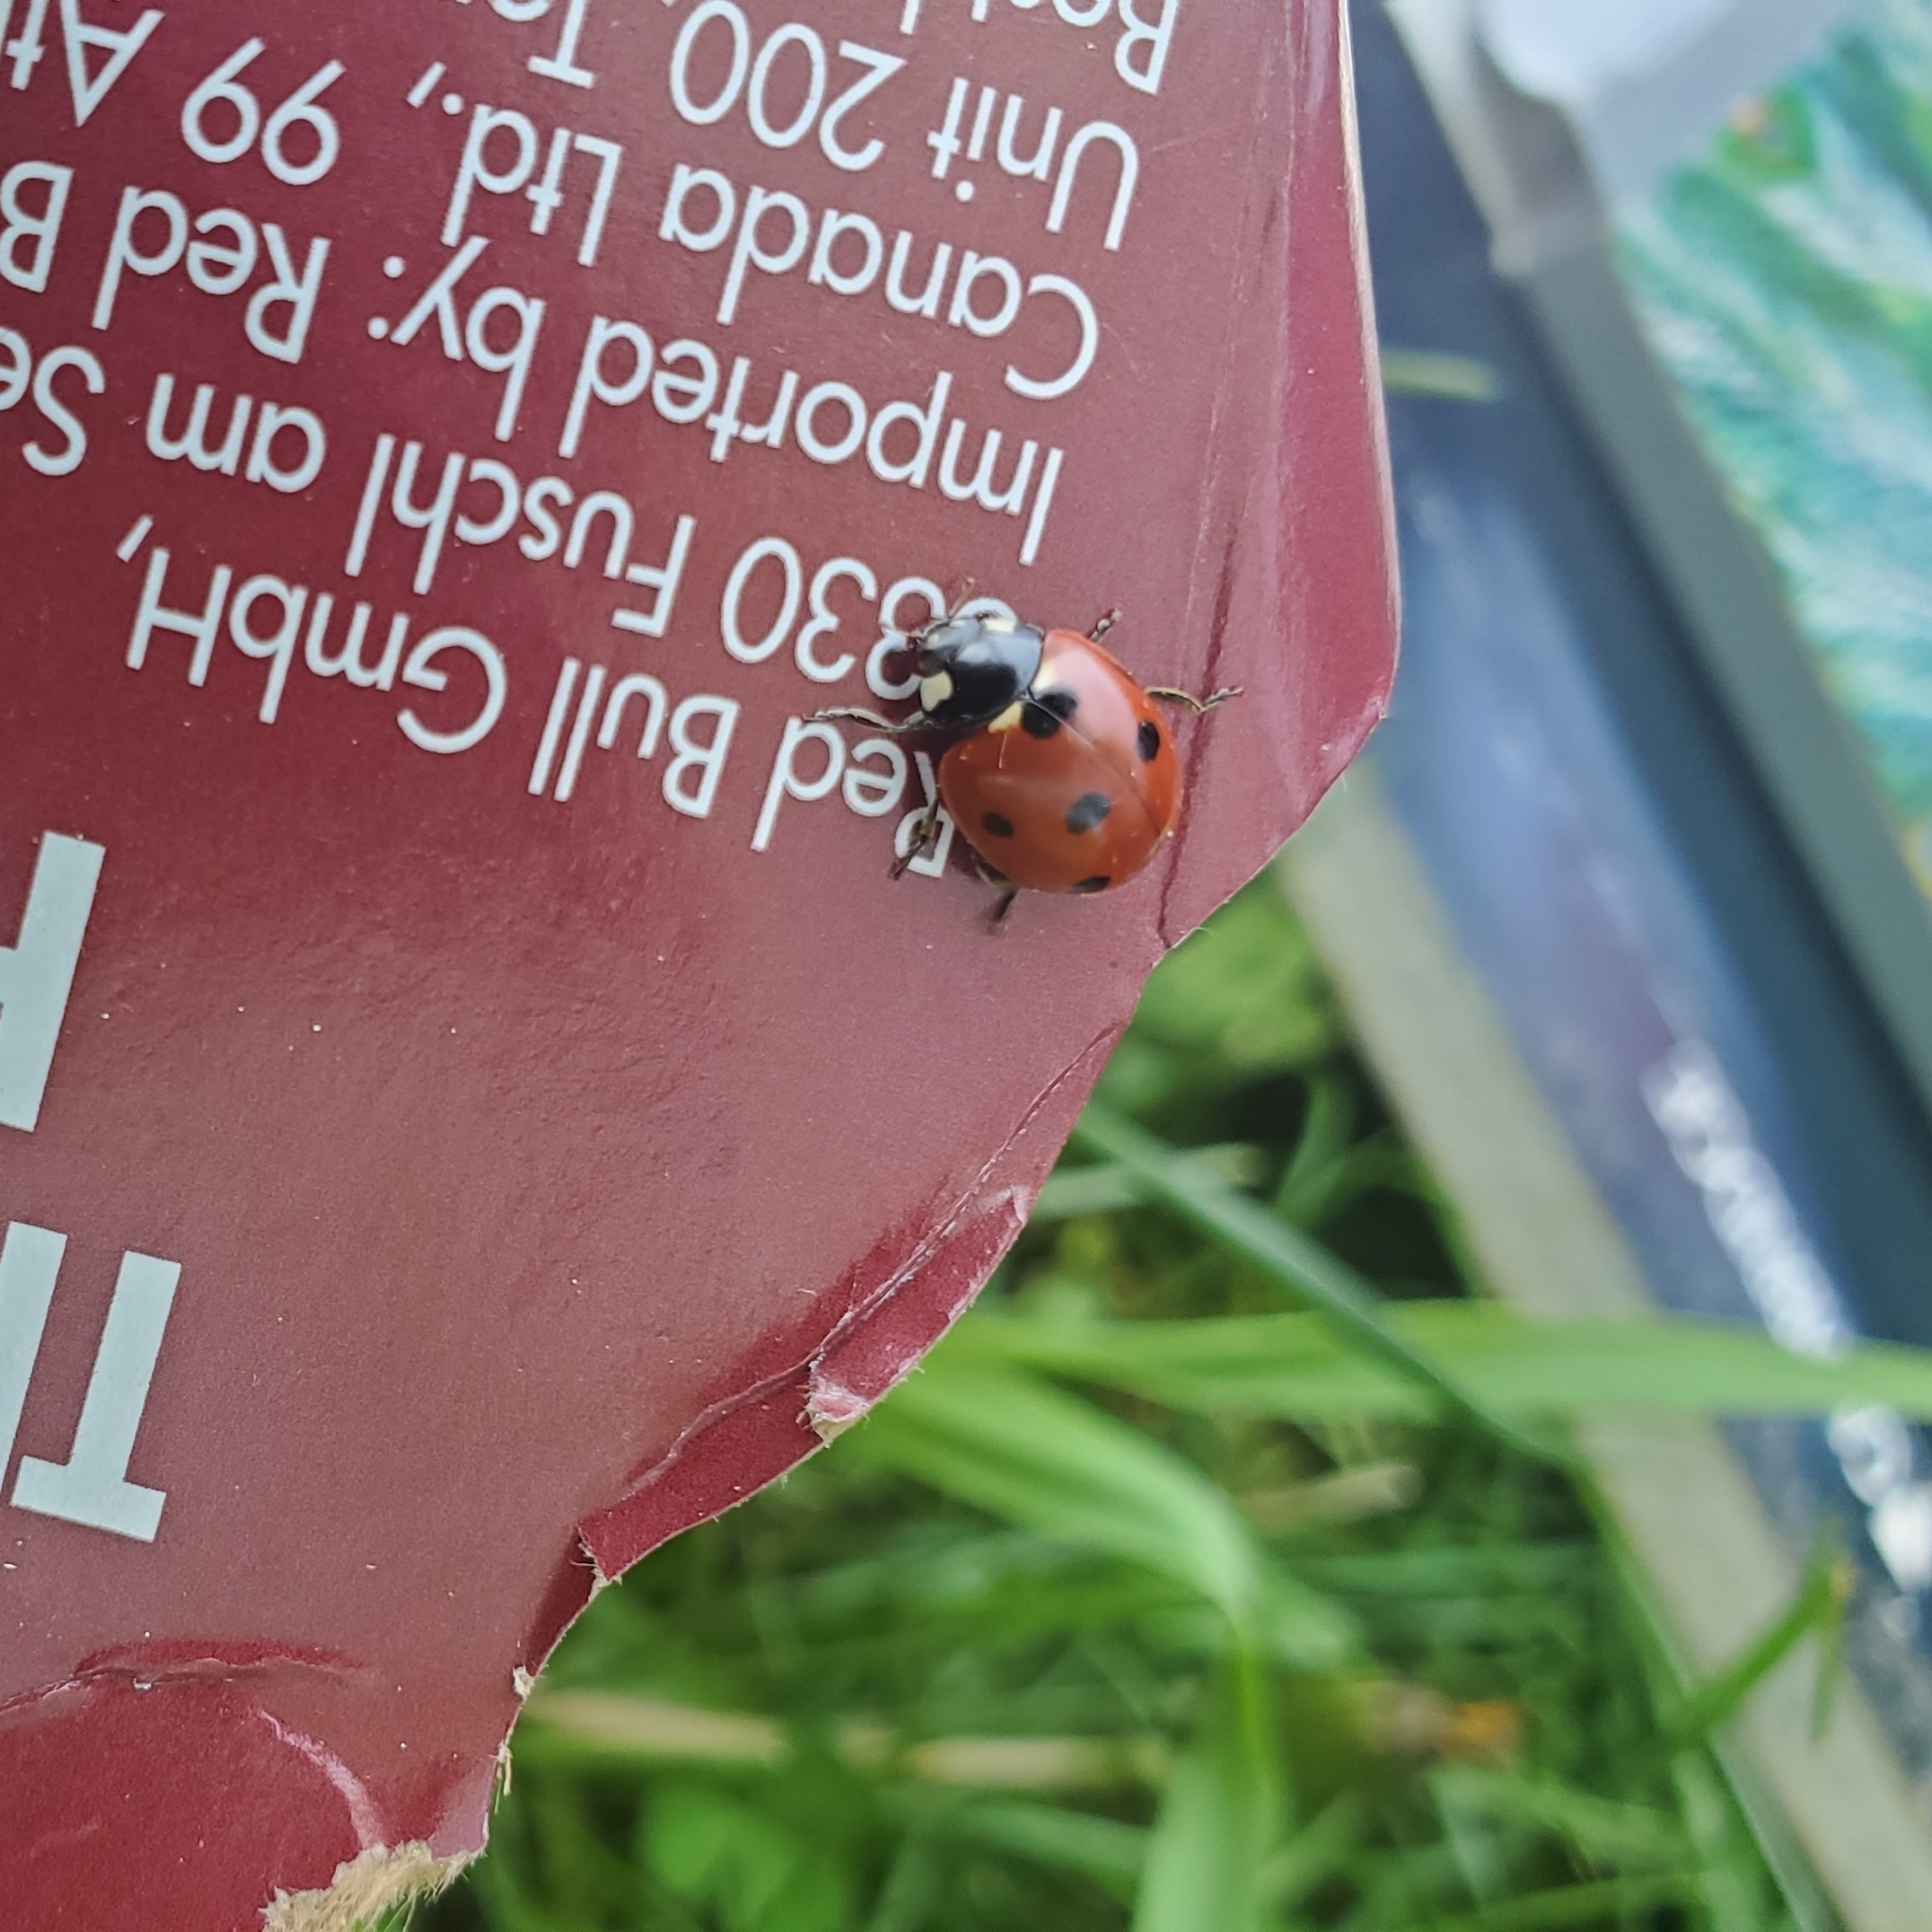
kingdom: Animalia
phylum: Arthropoda
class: Insecta
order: Coleoptera
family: Coccinellidae
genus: Coccinella
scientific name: Coccinella septempunctata
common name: Sevenspotted lady beetle
